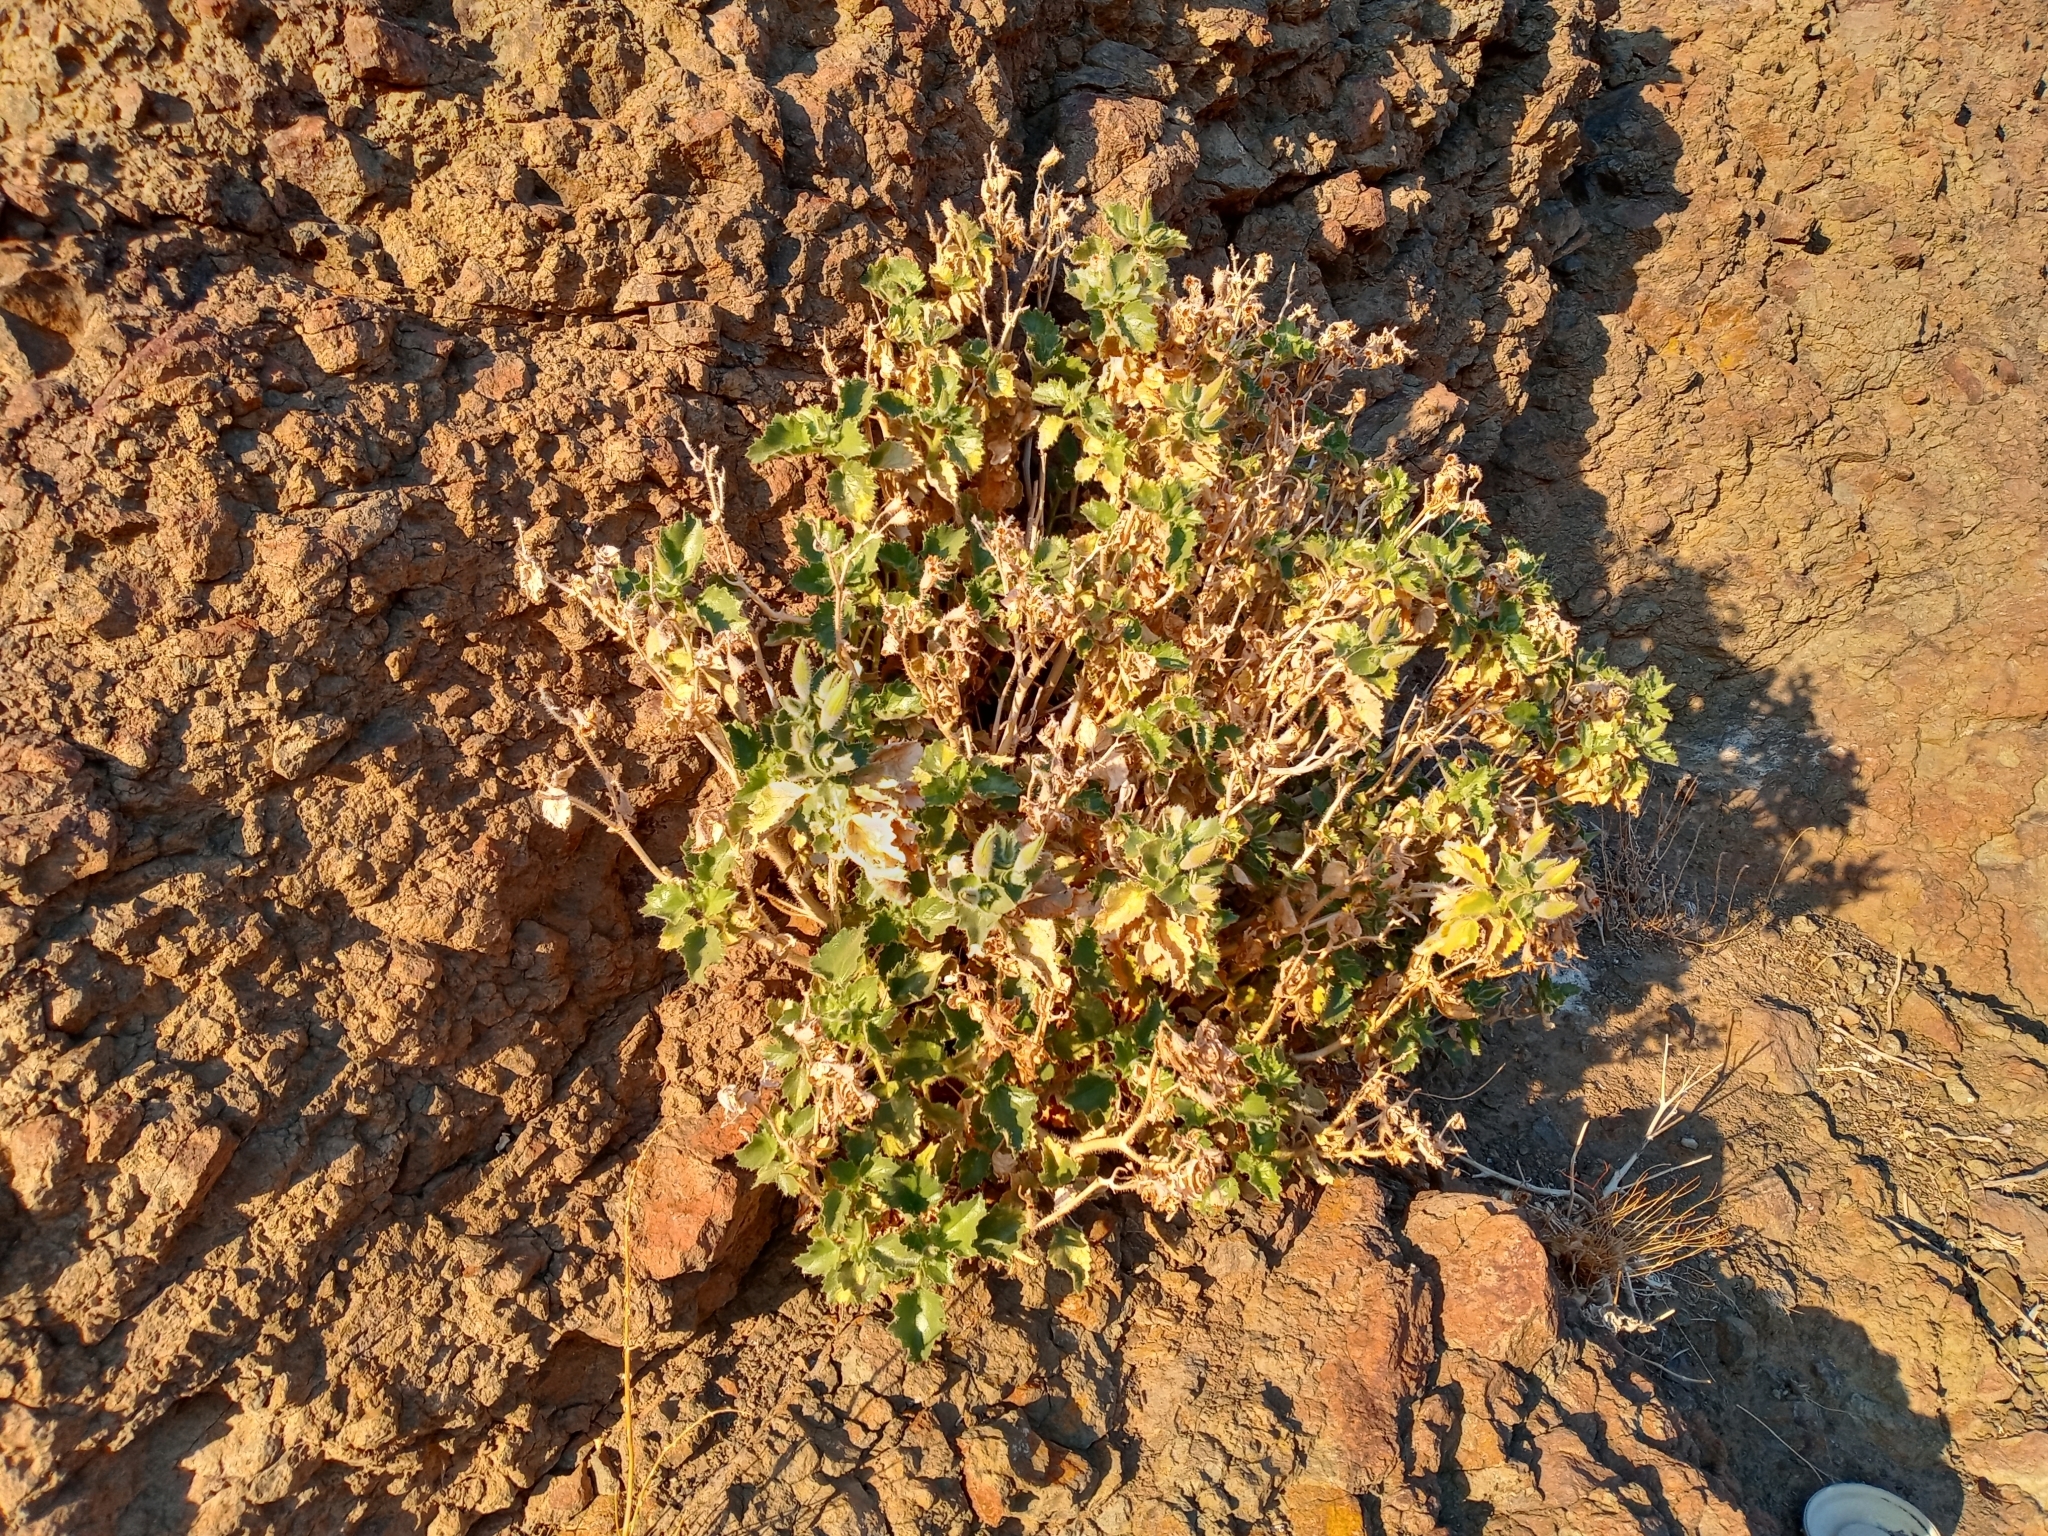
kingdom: Plantae
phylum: Tracheophyta
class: Magnoliopsida
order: Cornales
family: Loasaceae
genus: Eucnide
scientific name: Eucnide urens
